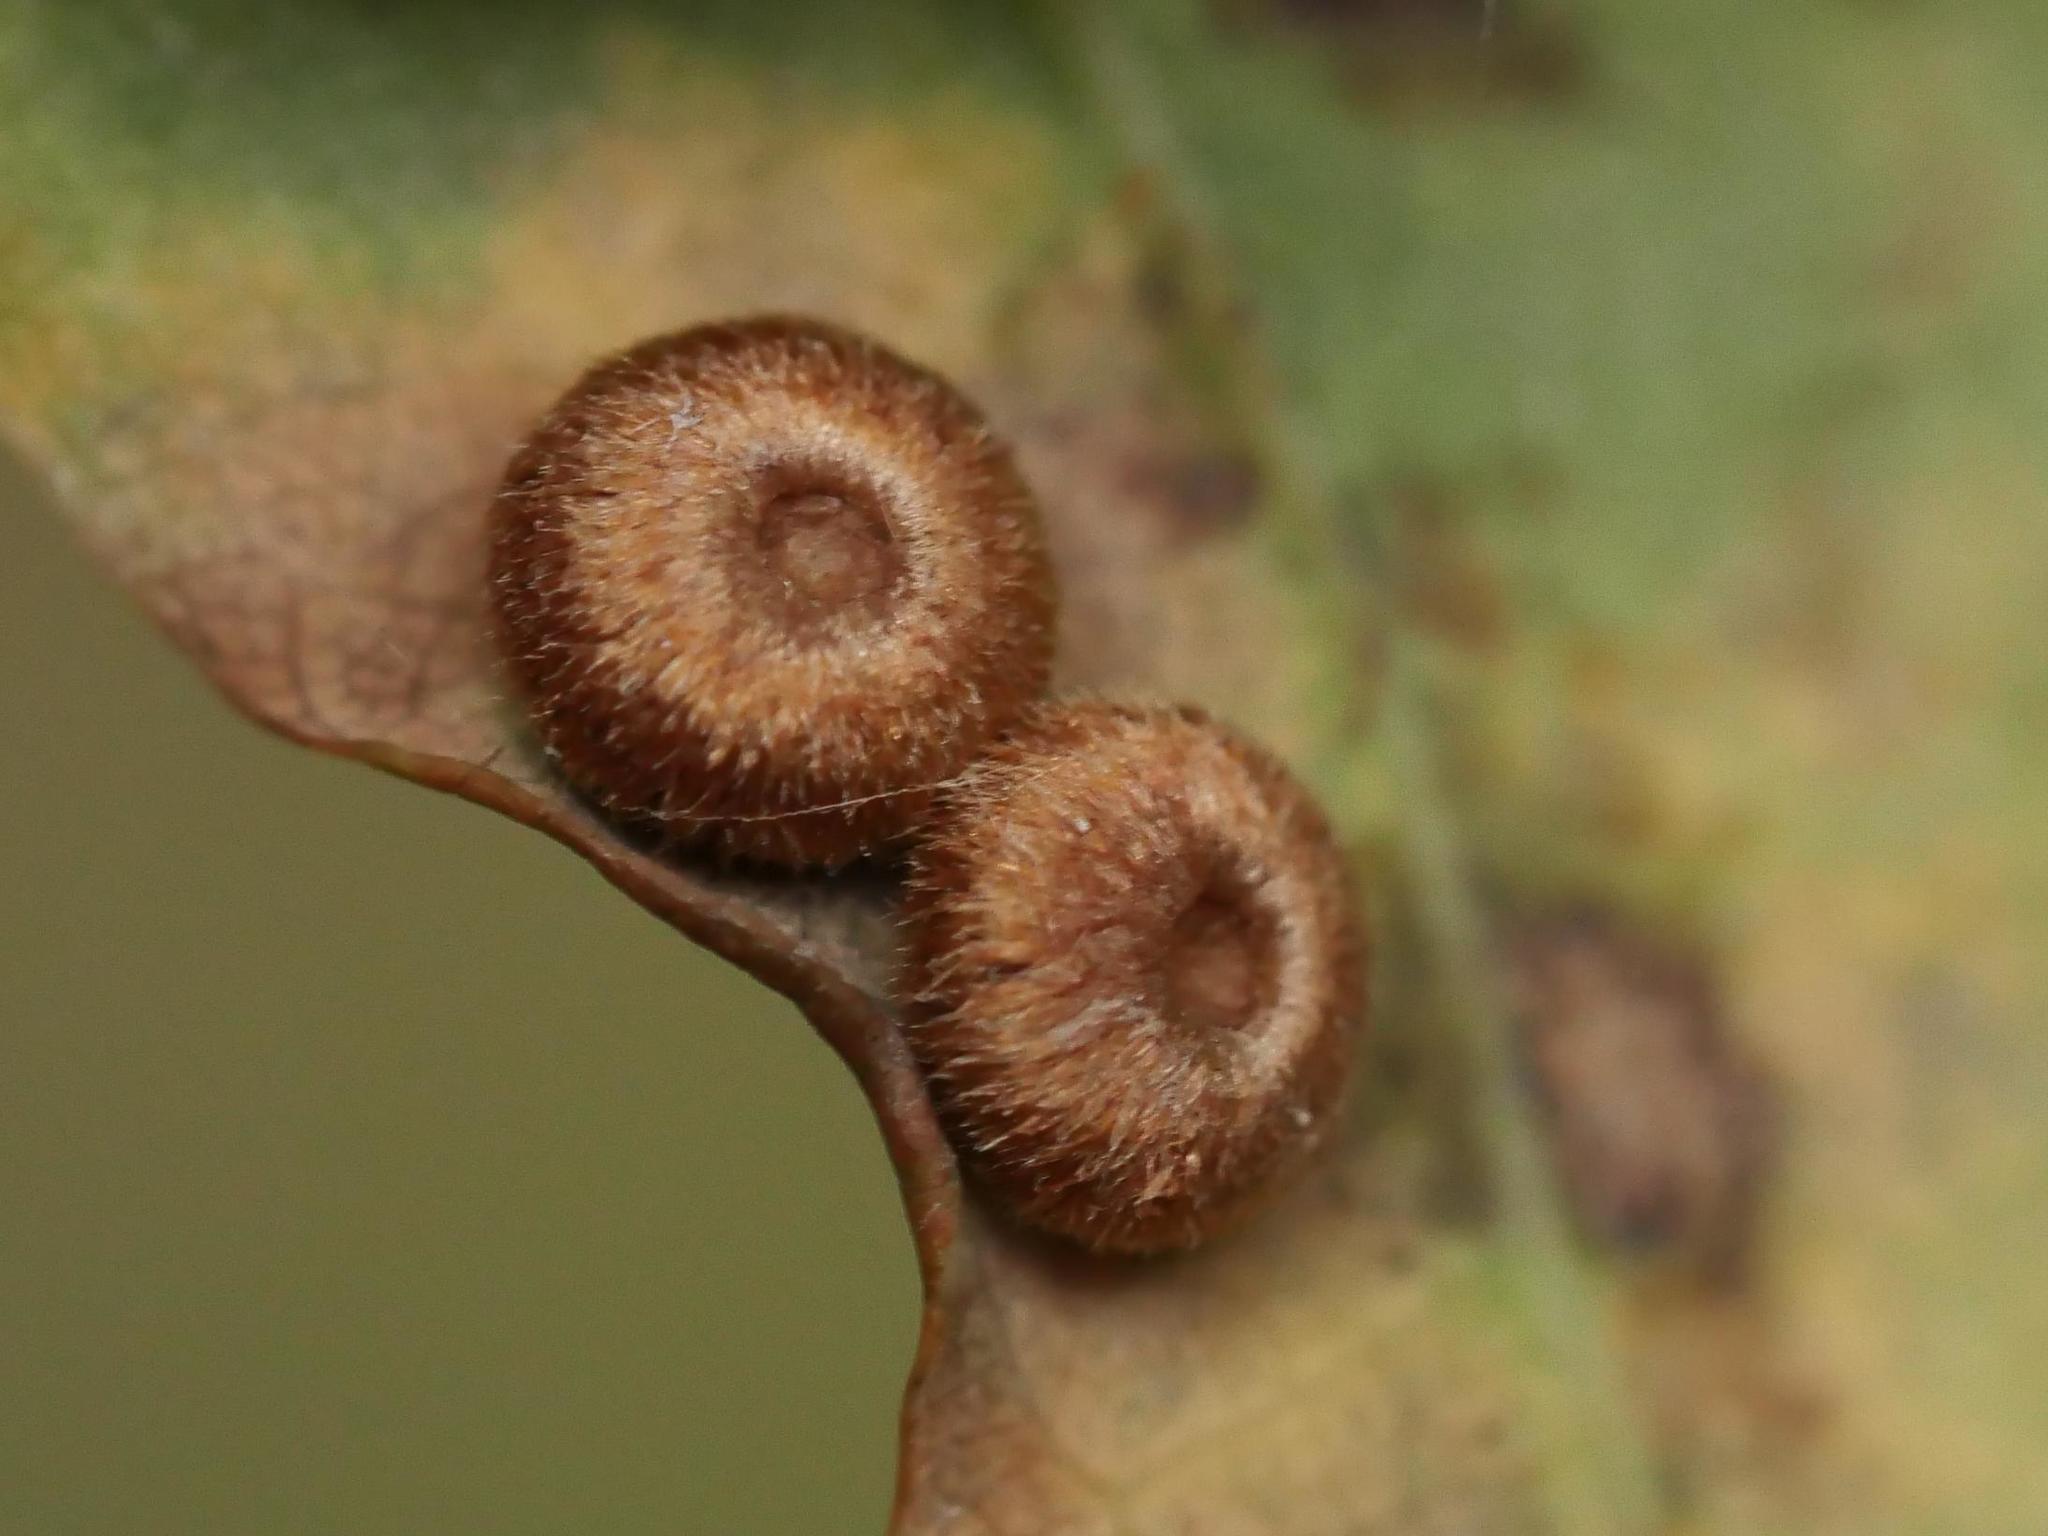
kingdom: Animalia
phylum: Arthropoda
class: Insecta
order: Hymenoptera
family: Cynipidae
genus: Neuroterus
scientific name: Neuroterus numismalis
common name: Silk-button spangle gall
